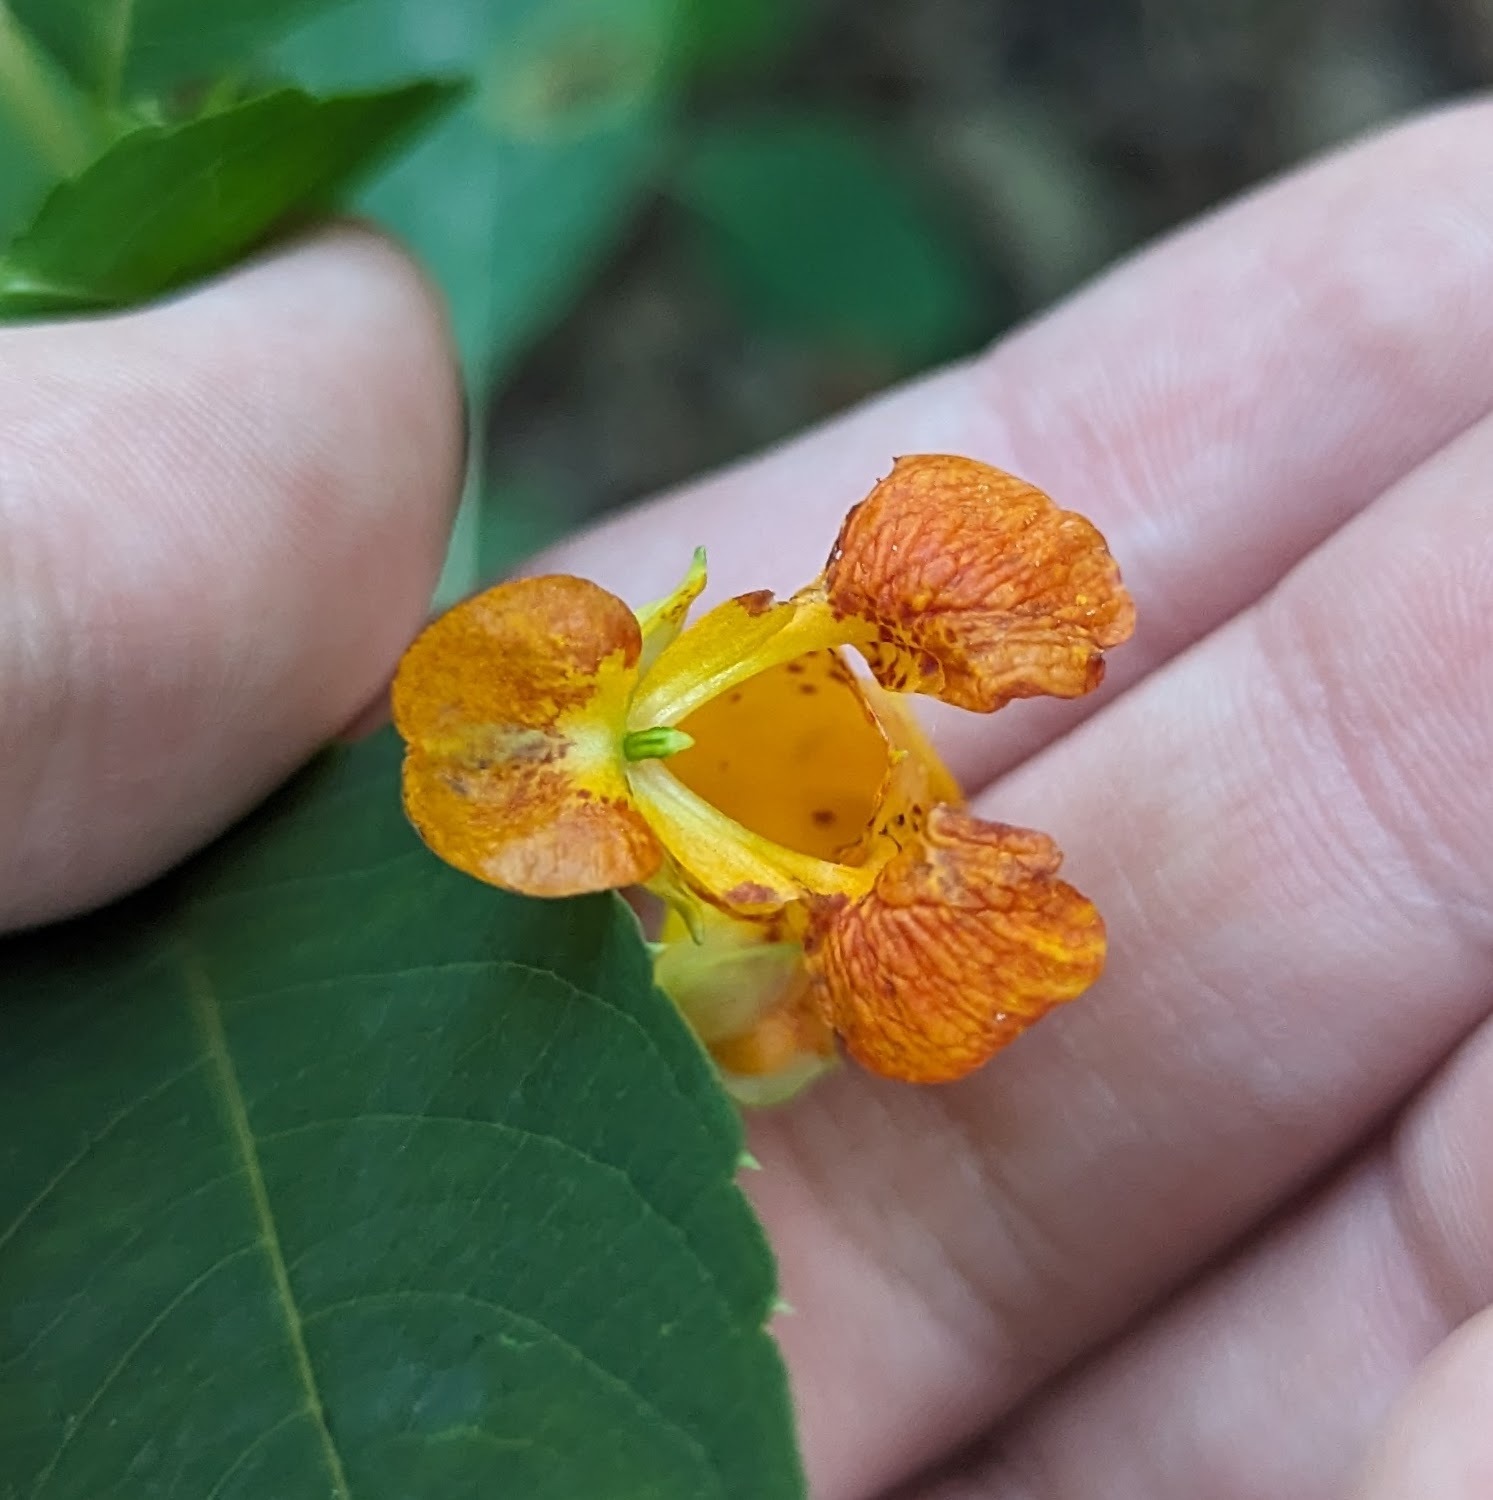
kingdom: Plantae
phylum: Tracheophyta
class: Magnoliopsida
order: Ericales
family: Balsaminaceae
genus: Impatiens
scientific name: Impatiens capensis
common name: Orange balsam
